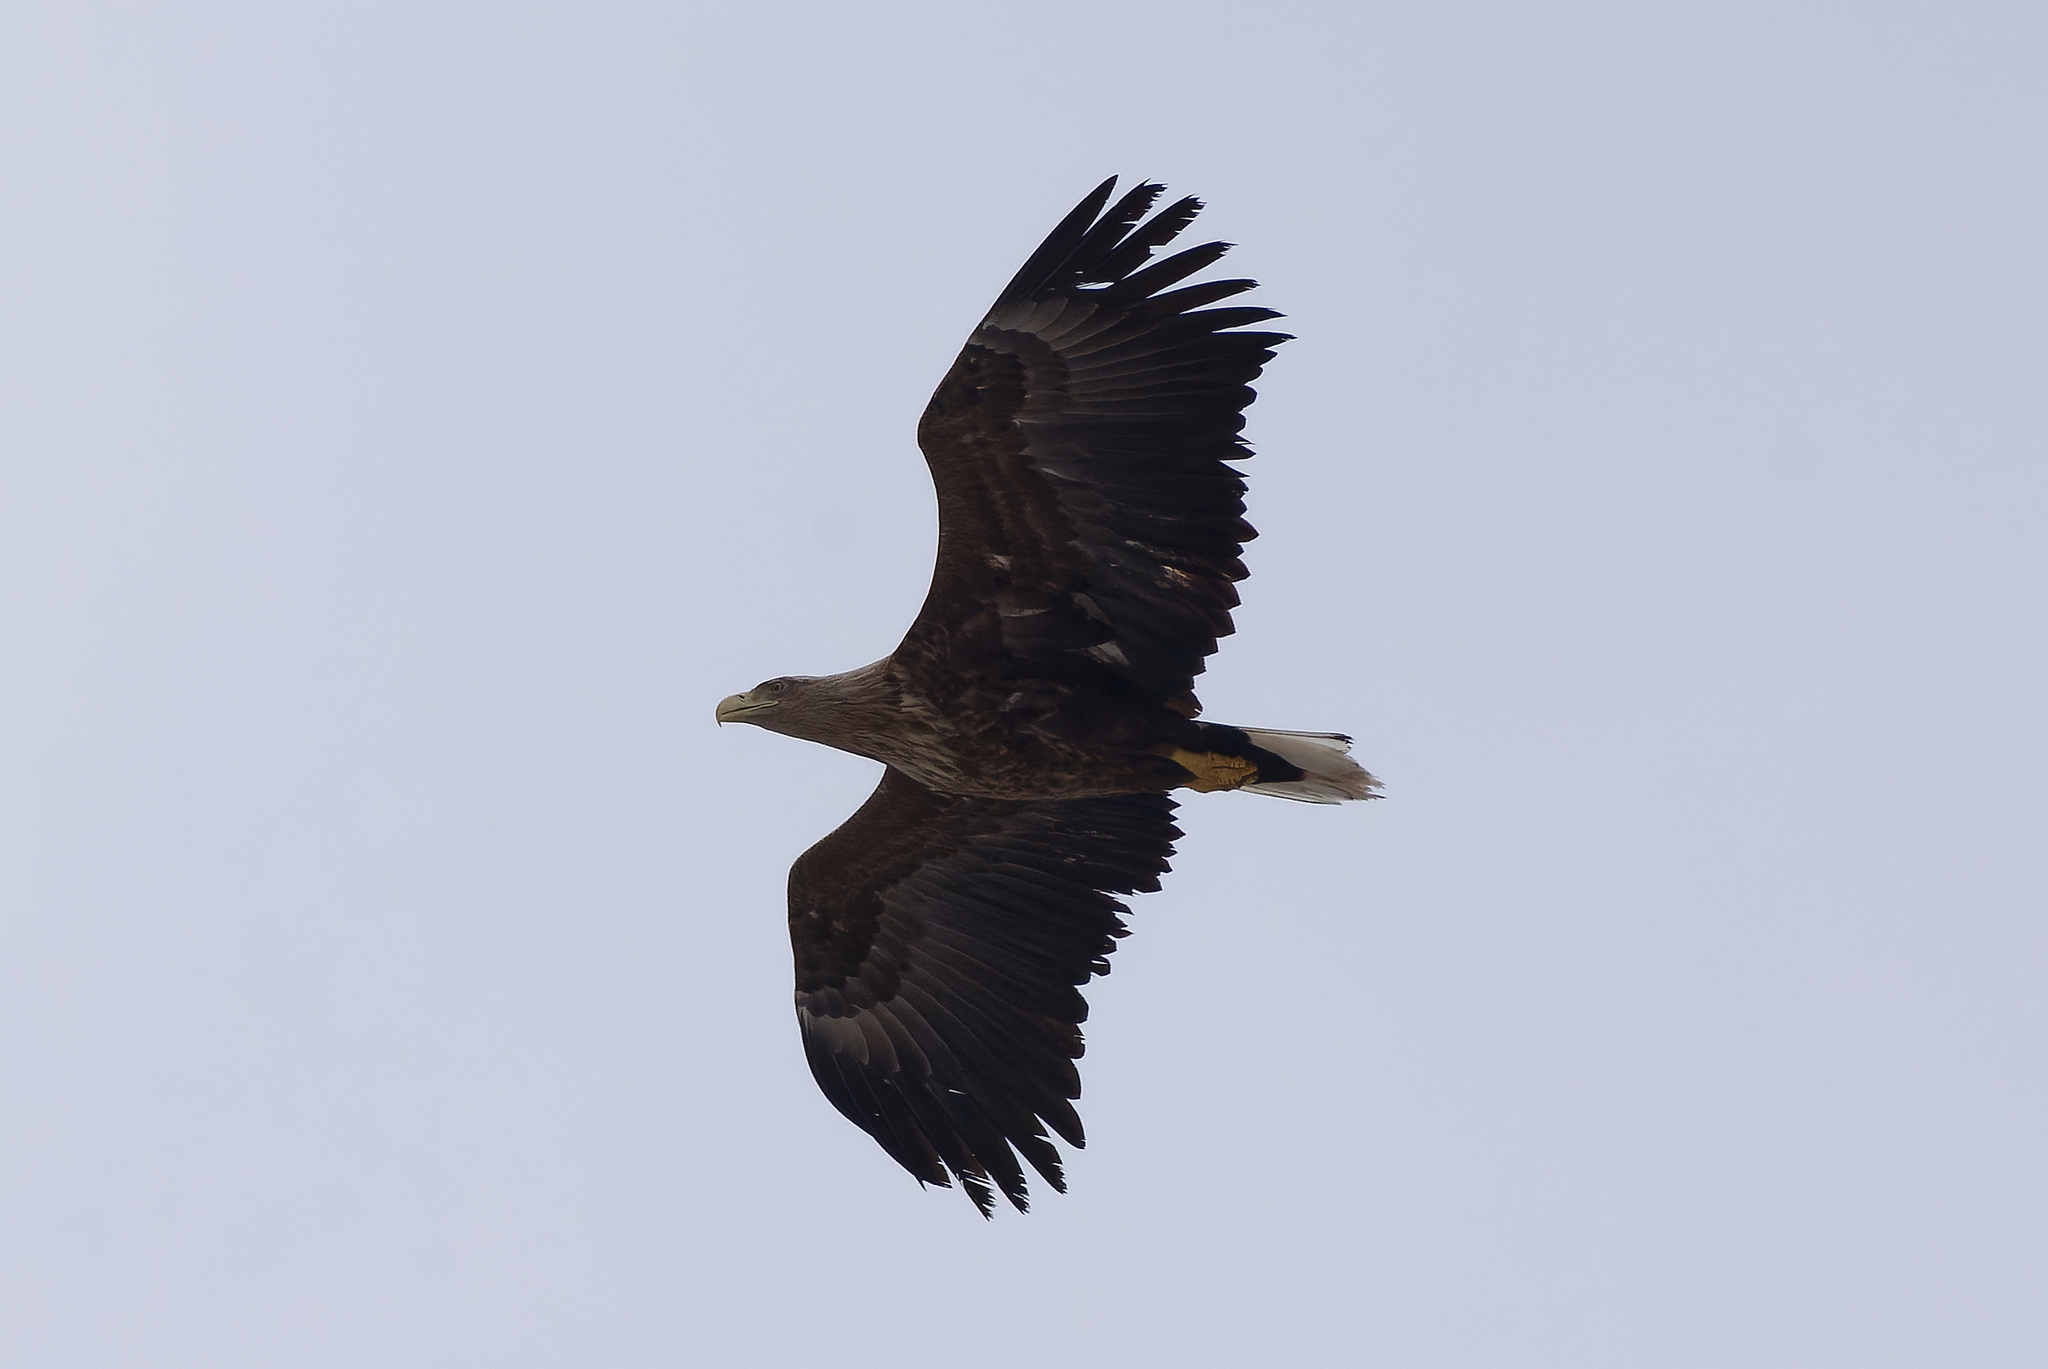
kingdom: Animalia
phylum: Chordata
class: Aves
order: Accipitriformes
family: Accipitridae
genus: Haliaeetus
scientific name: Haliaeetus albicilla
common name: White-tailed eagle
